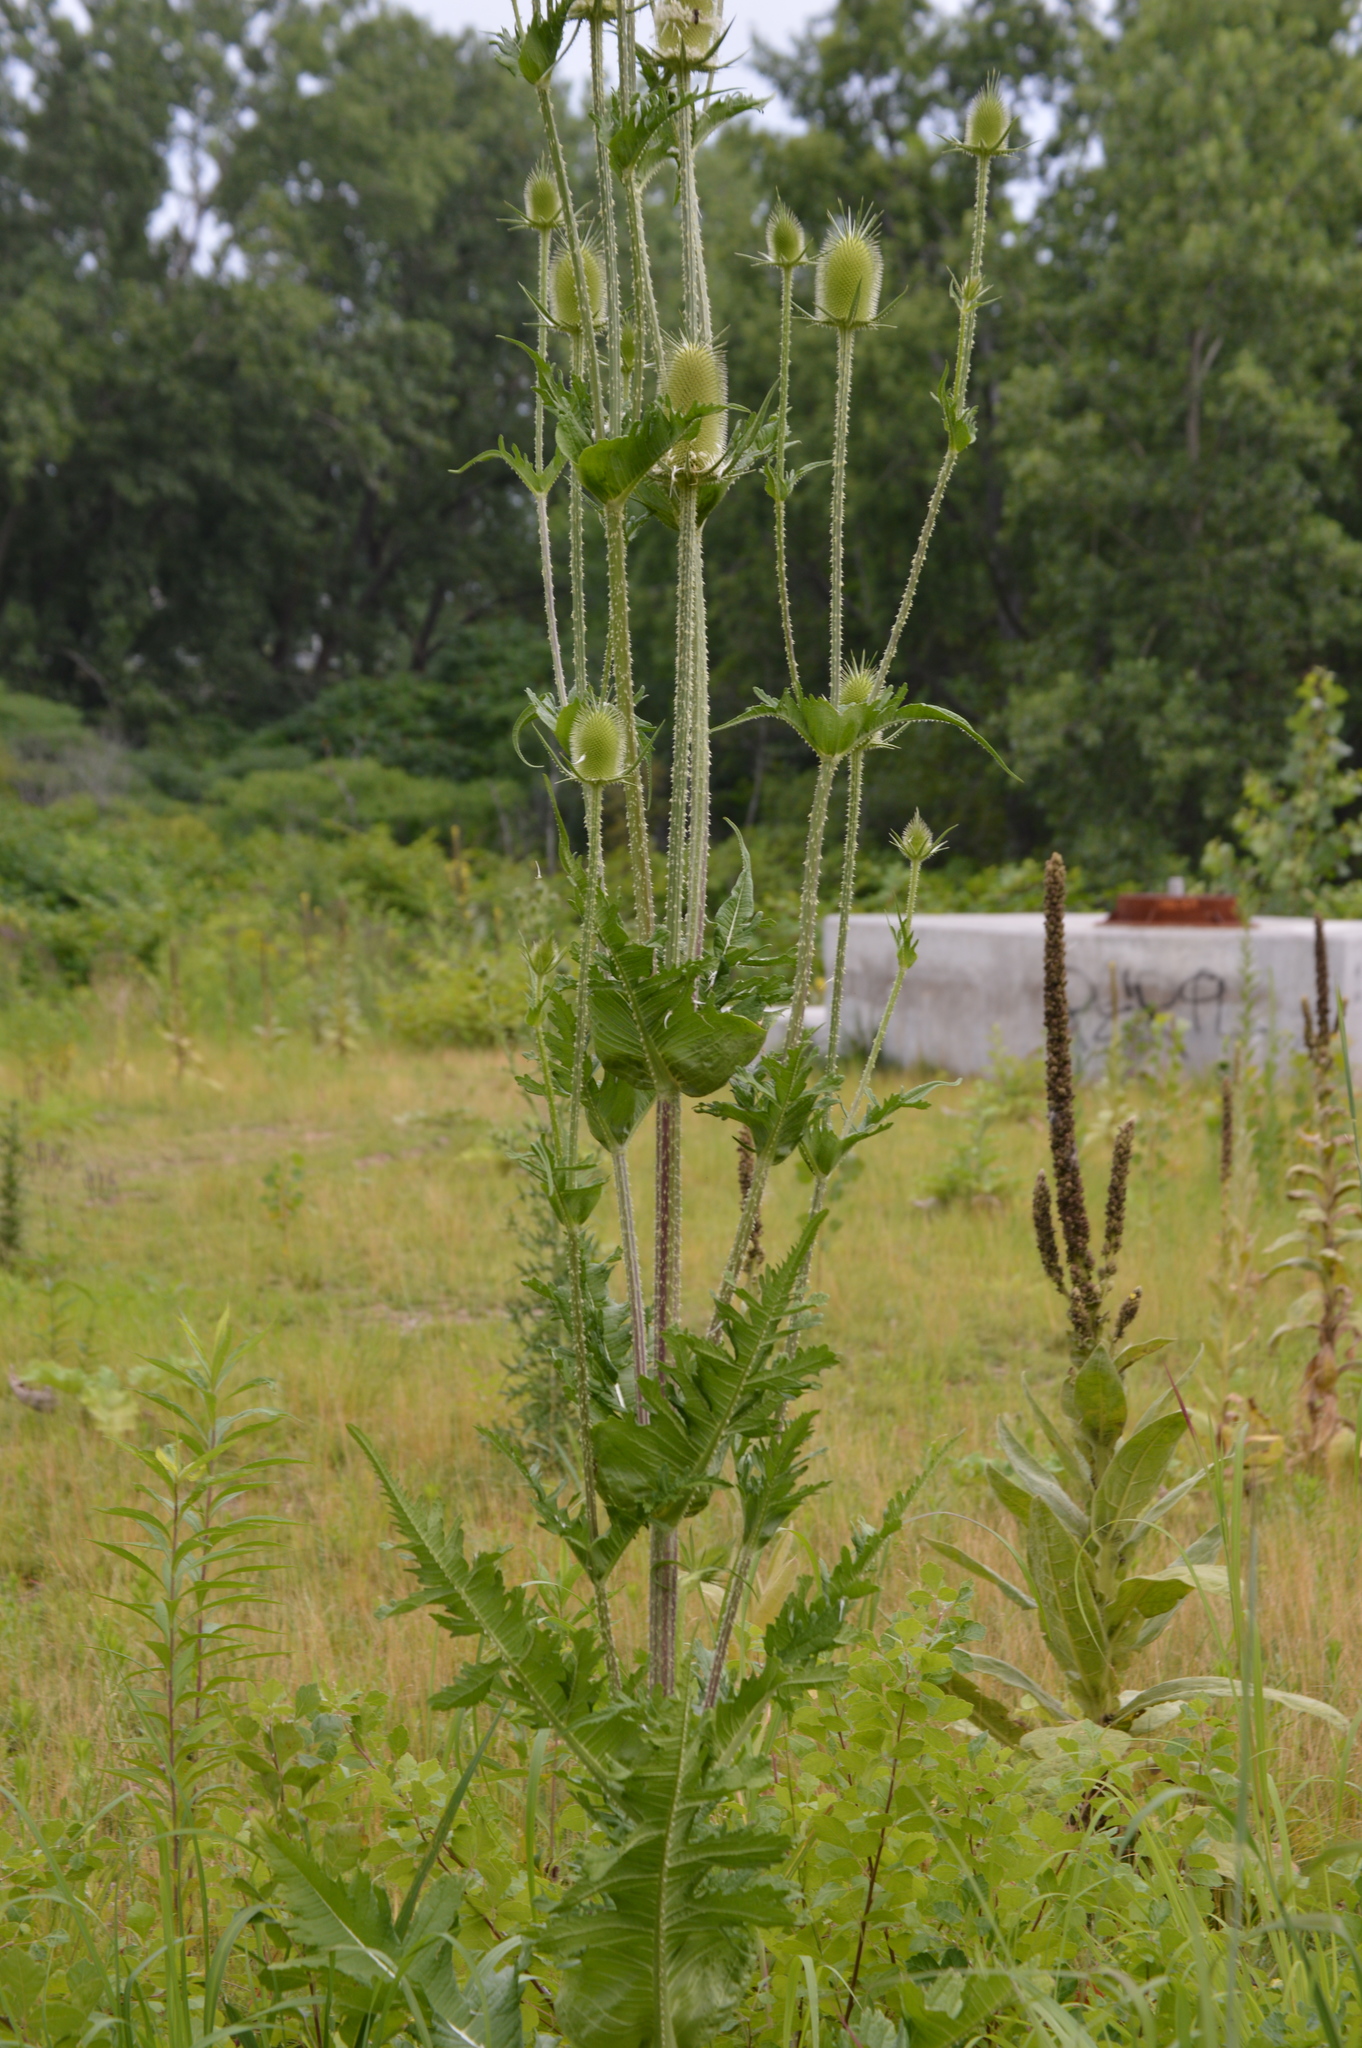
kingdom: Plantae
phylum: Tracheophyta
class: Magnoliopsida
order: Dipsacales
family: Caprifoliaceae
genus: Dipsacus
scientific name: Dipsacus laciniatus
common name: Cut-leaved teasel
